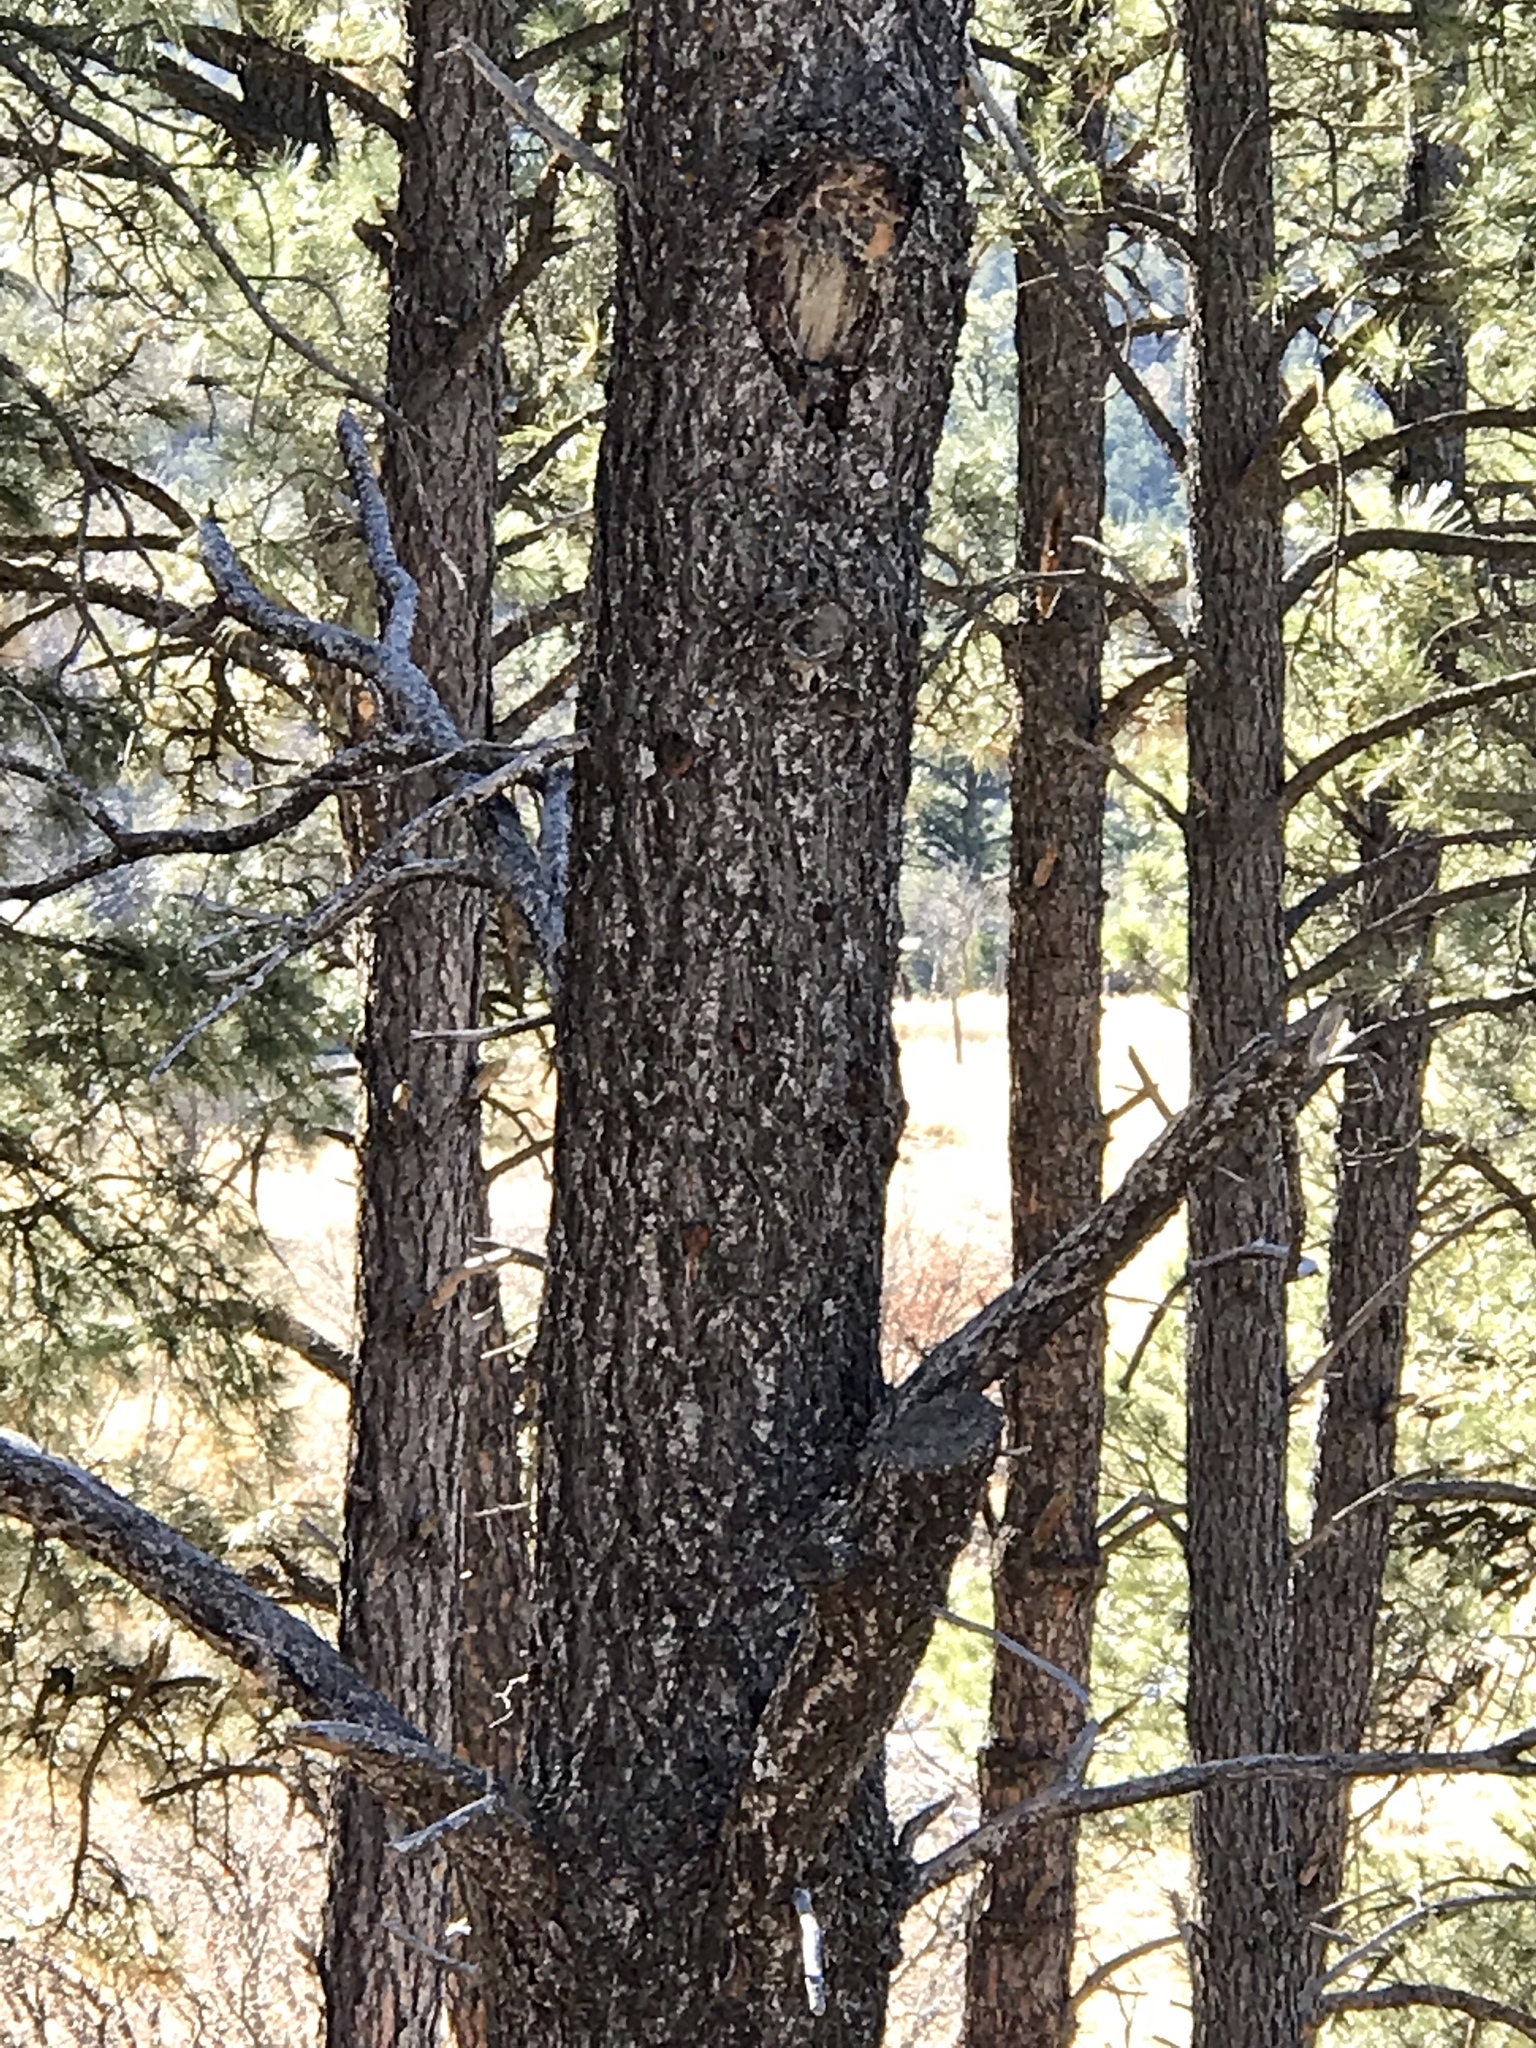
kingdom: Plantae
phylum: Tracheophyta
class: Pinopsida
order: Pinales
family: Pinaceae
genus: Pinus
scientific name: Pinus strobiformis
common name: Southwestern white pine
